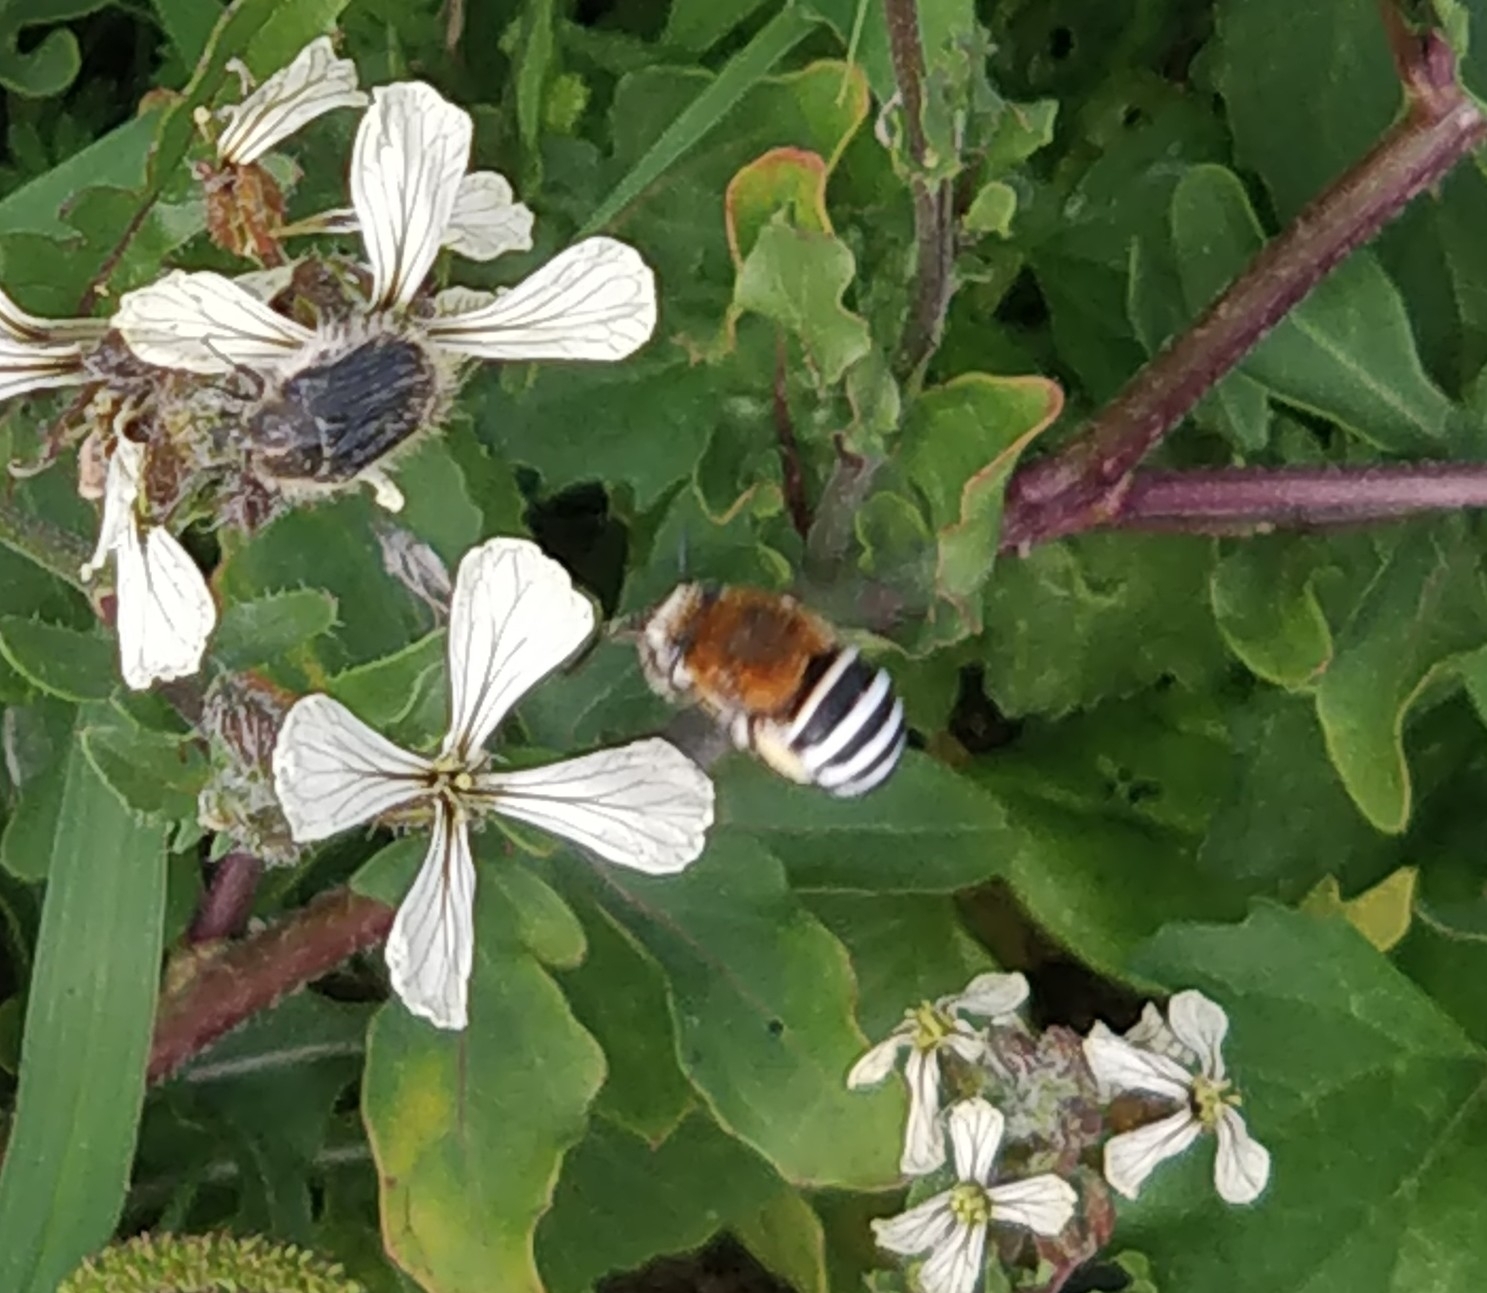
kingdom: Animalia
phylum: Arthropoda
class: Insecta
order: Hymenoptera
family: Apidae
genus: Amegilla
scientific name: Amegilla quadrifasciata
